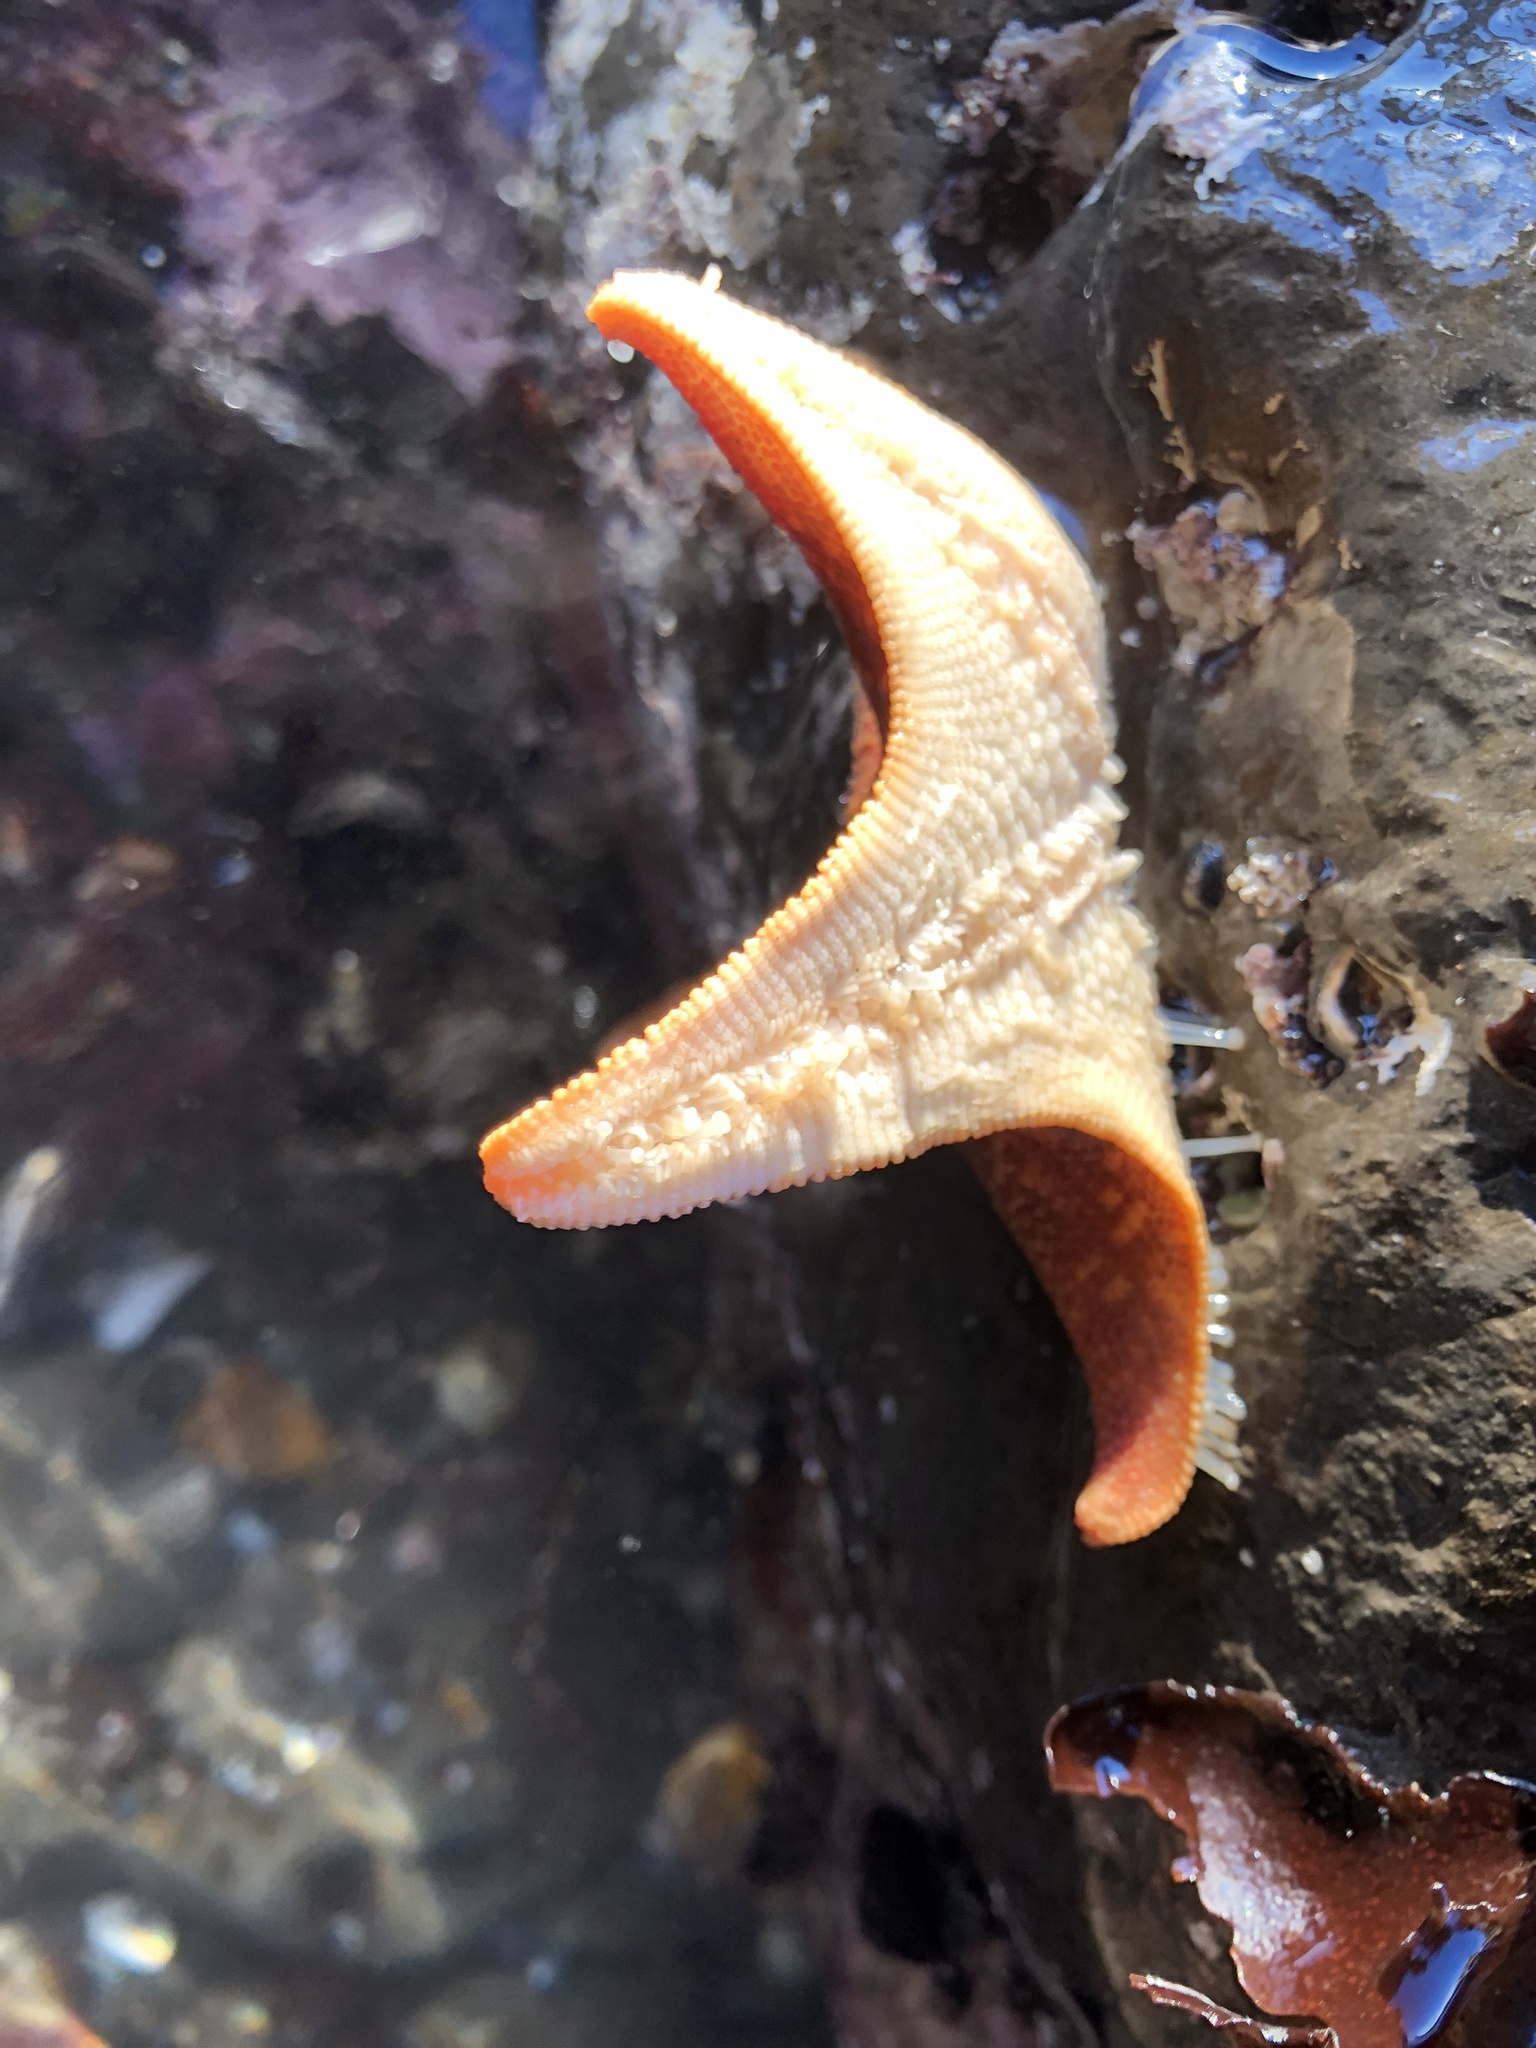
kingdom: Animalia
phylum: Echinodermata
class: Asteroidea
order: Valvatida
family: Asterinidae
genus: Patiria
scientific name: Patiria miniata
